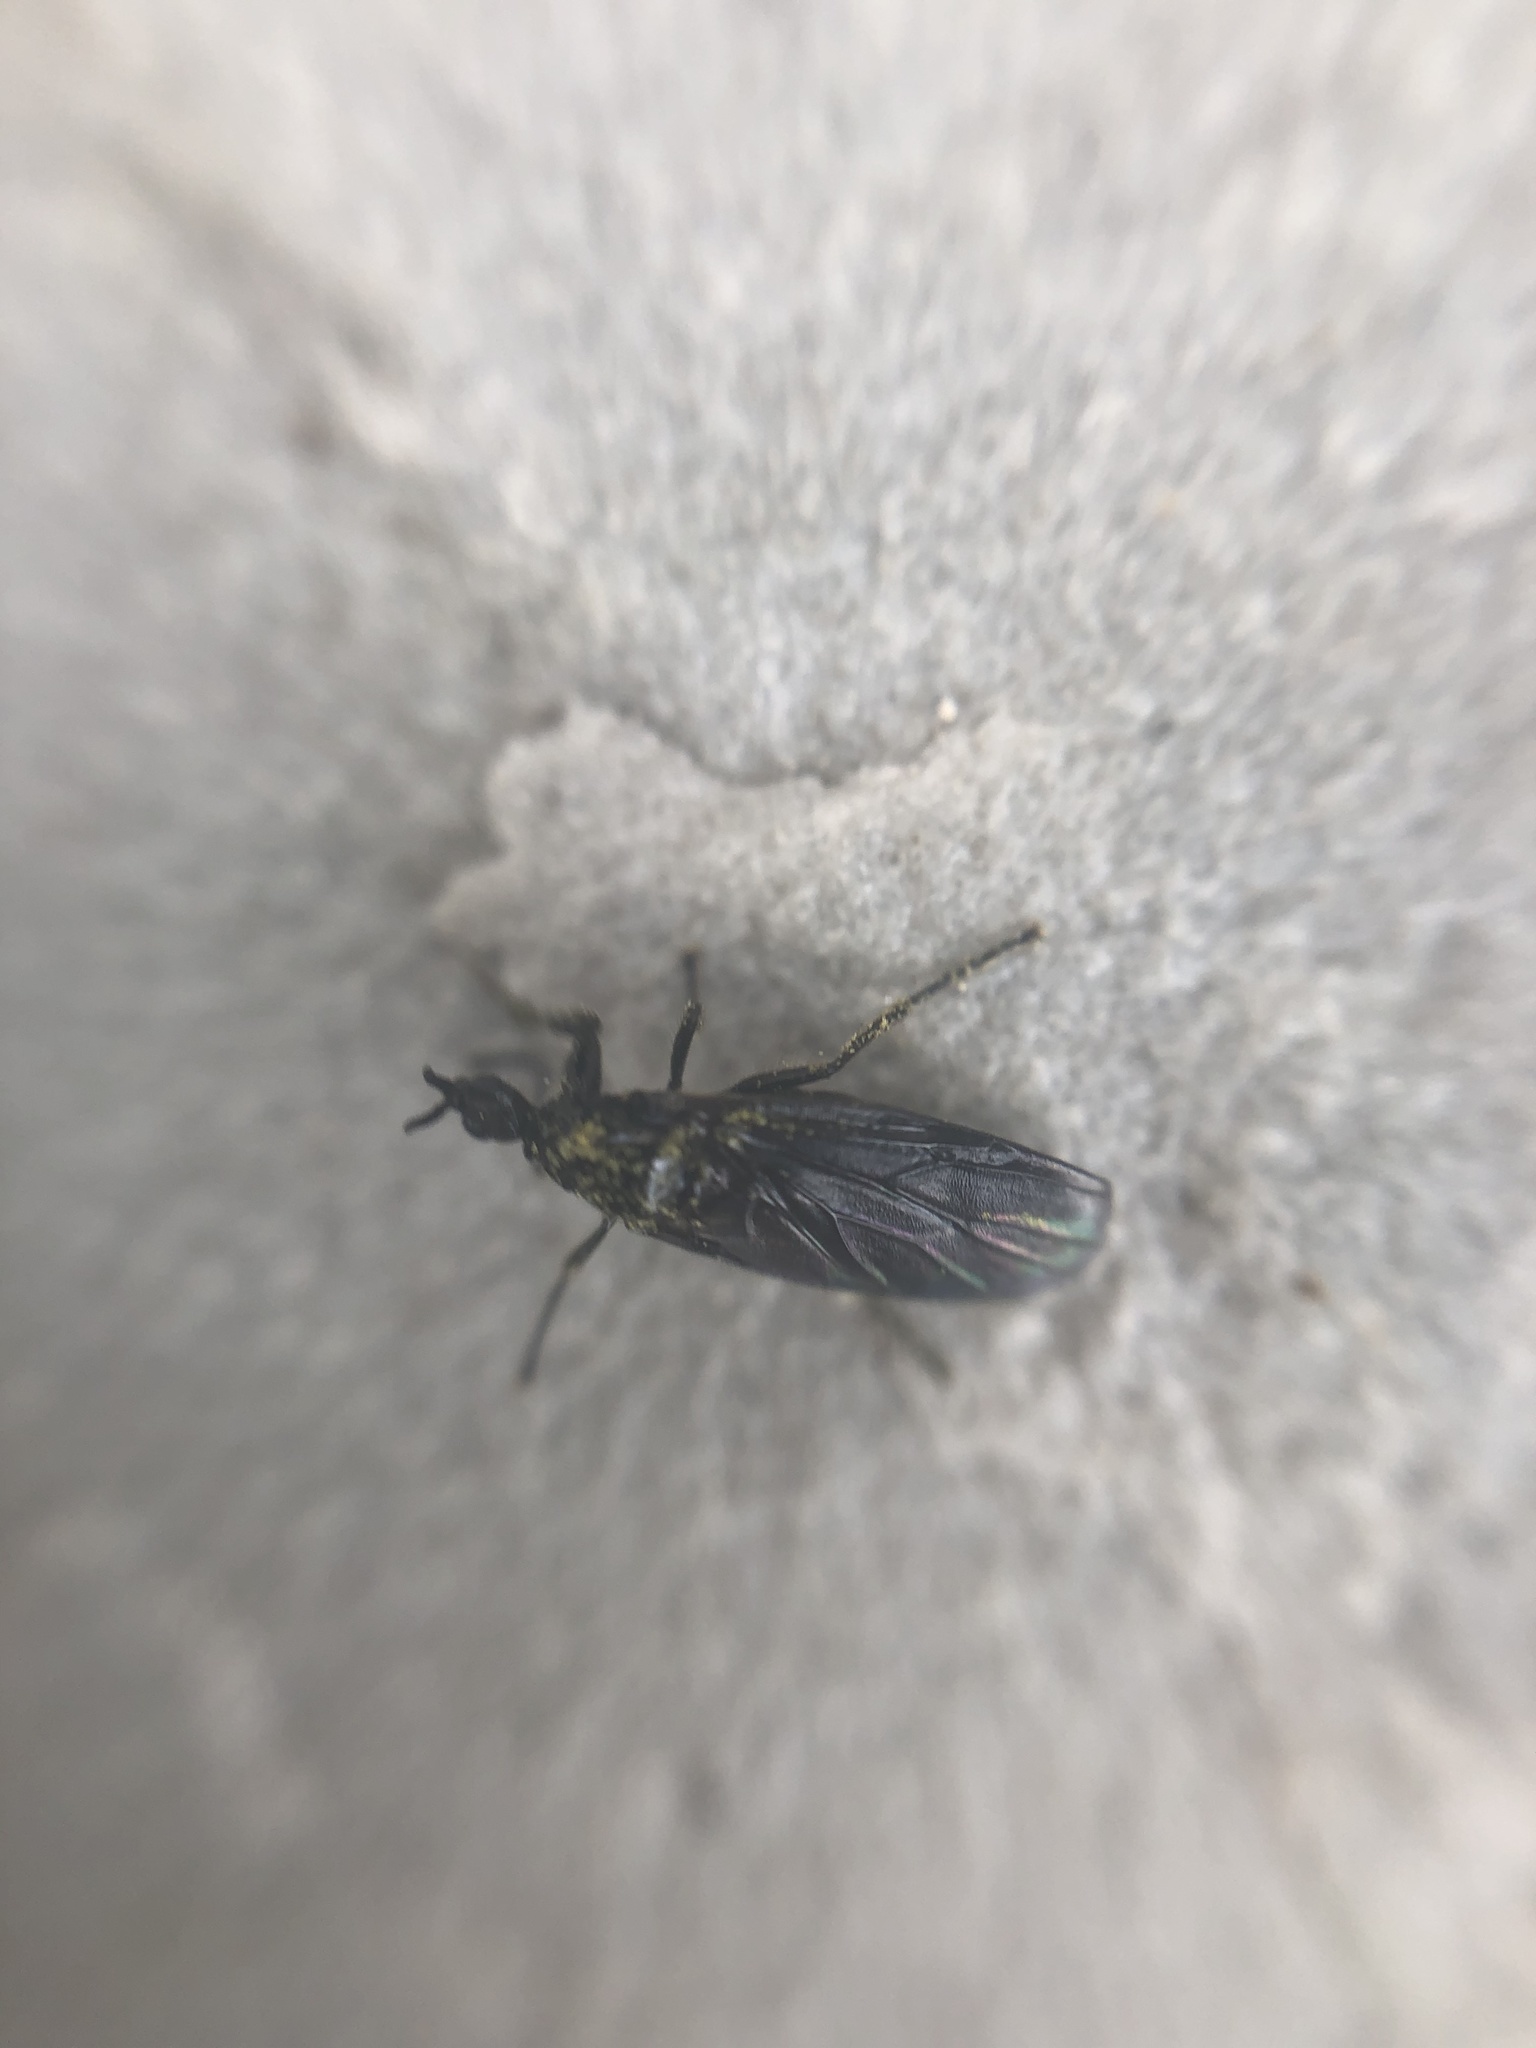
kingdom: Animalia
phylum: Arthropoda
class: Insecta
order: Diptera
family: Bibionidae
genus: Dilophus
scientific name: Dilophus febrilis
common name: Fever fly
